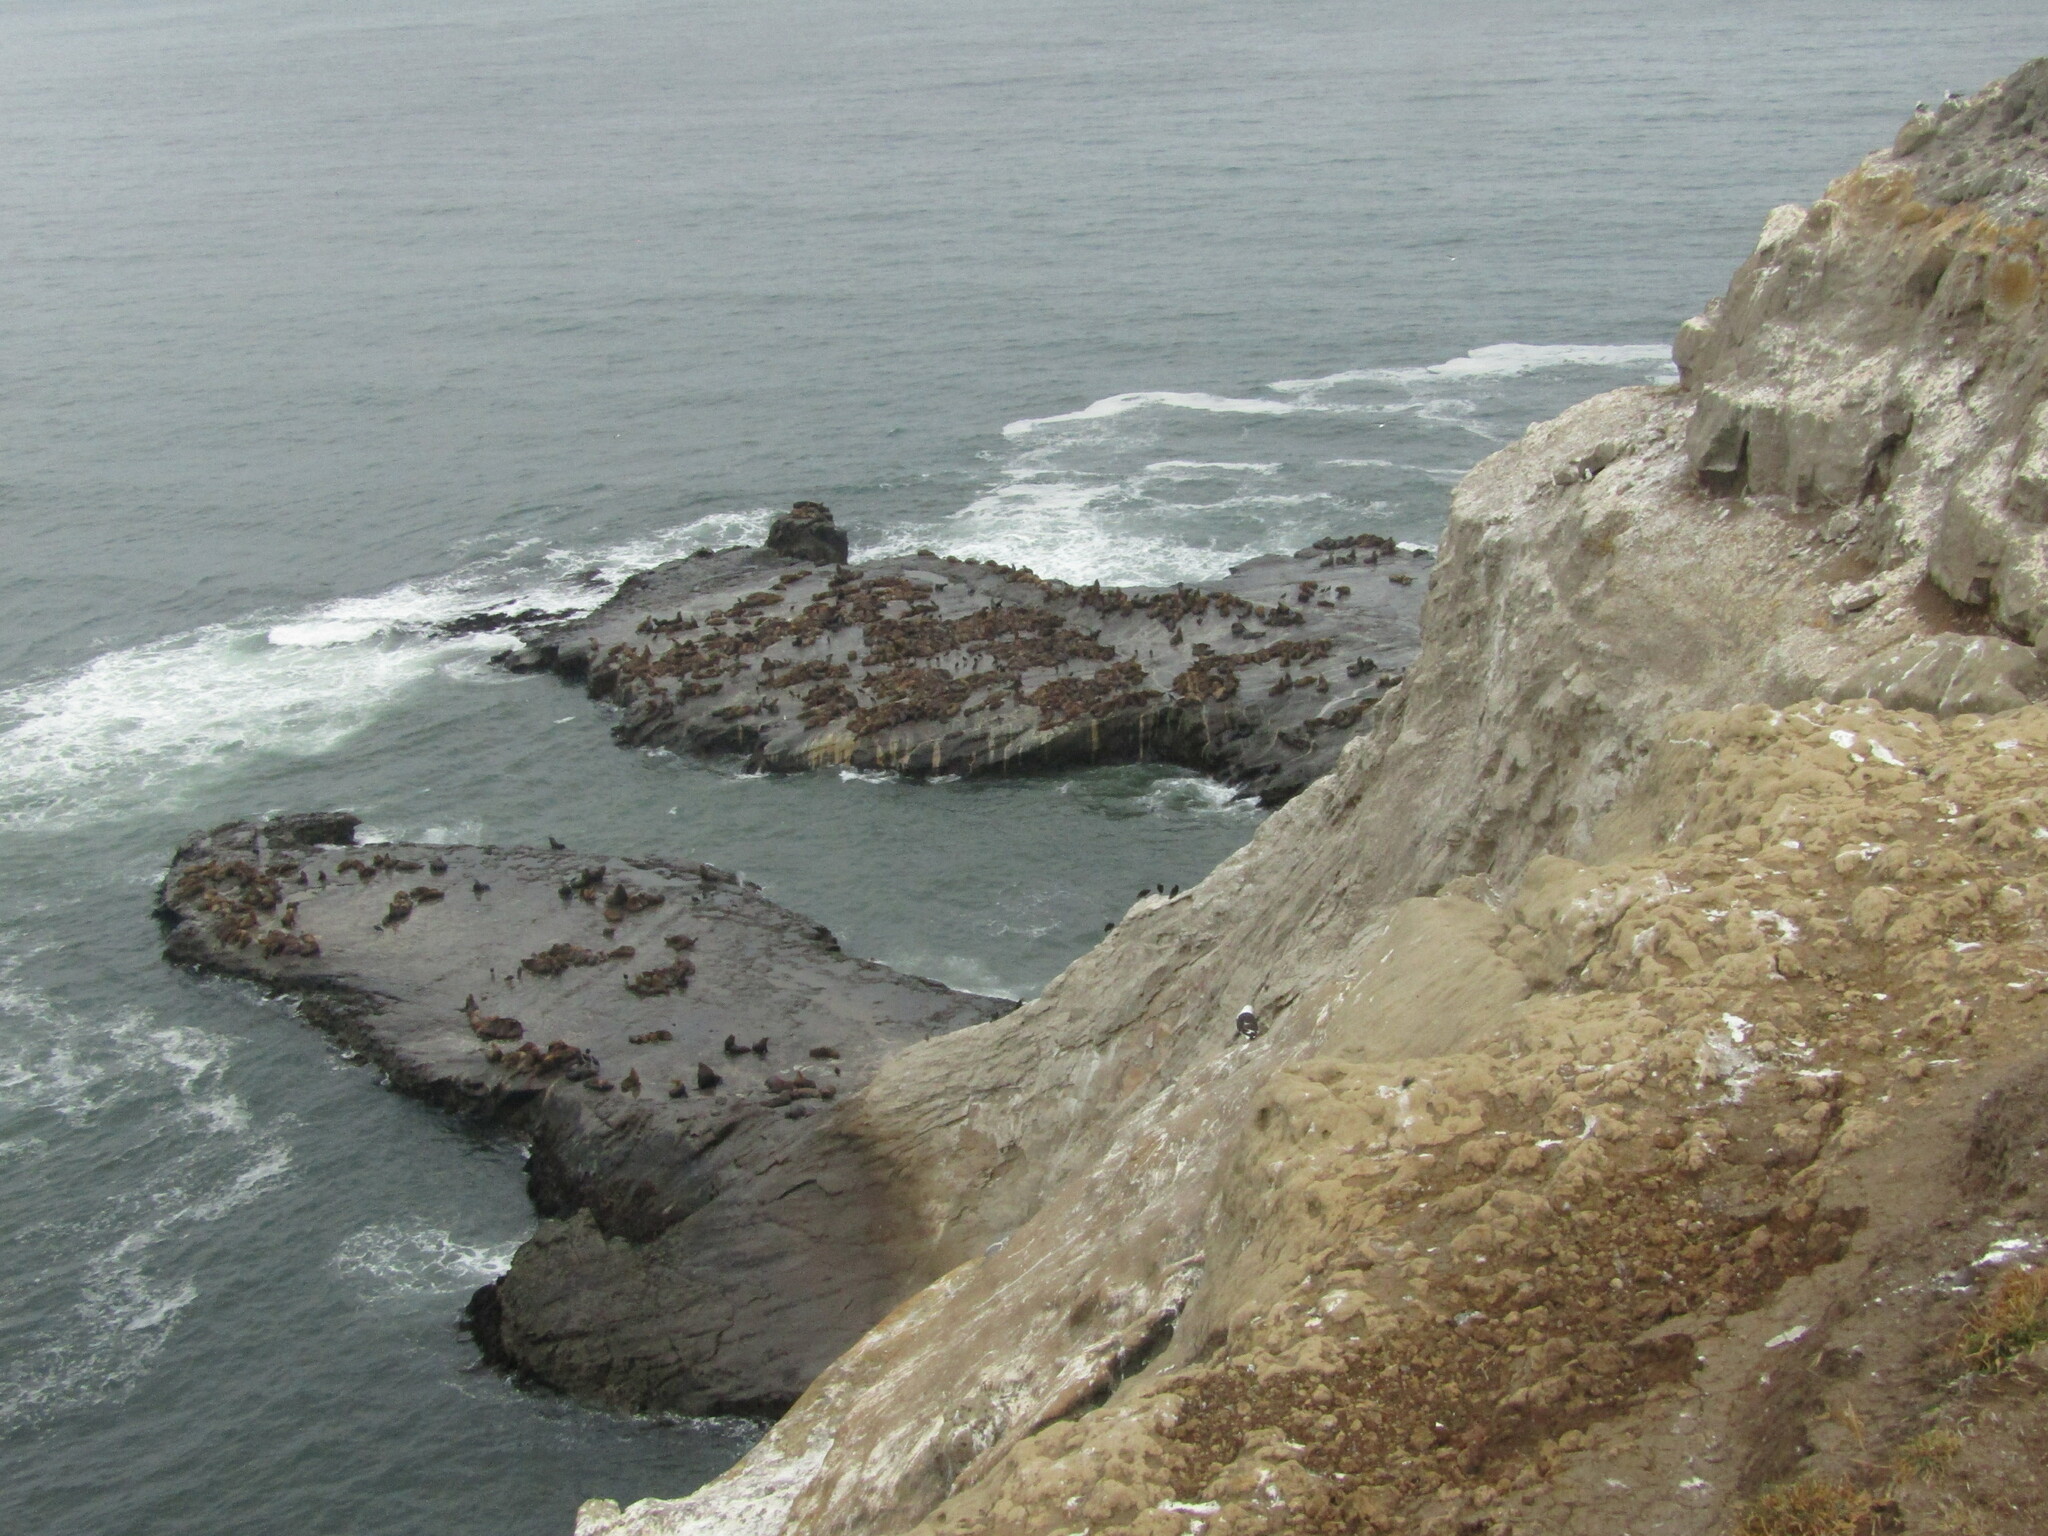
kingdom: Animalia
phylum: Chordata
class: Mammalia
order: Carnivora
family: Otariidae
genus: Otaria
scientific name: Otaria byronia
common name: South american sea lion
